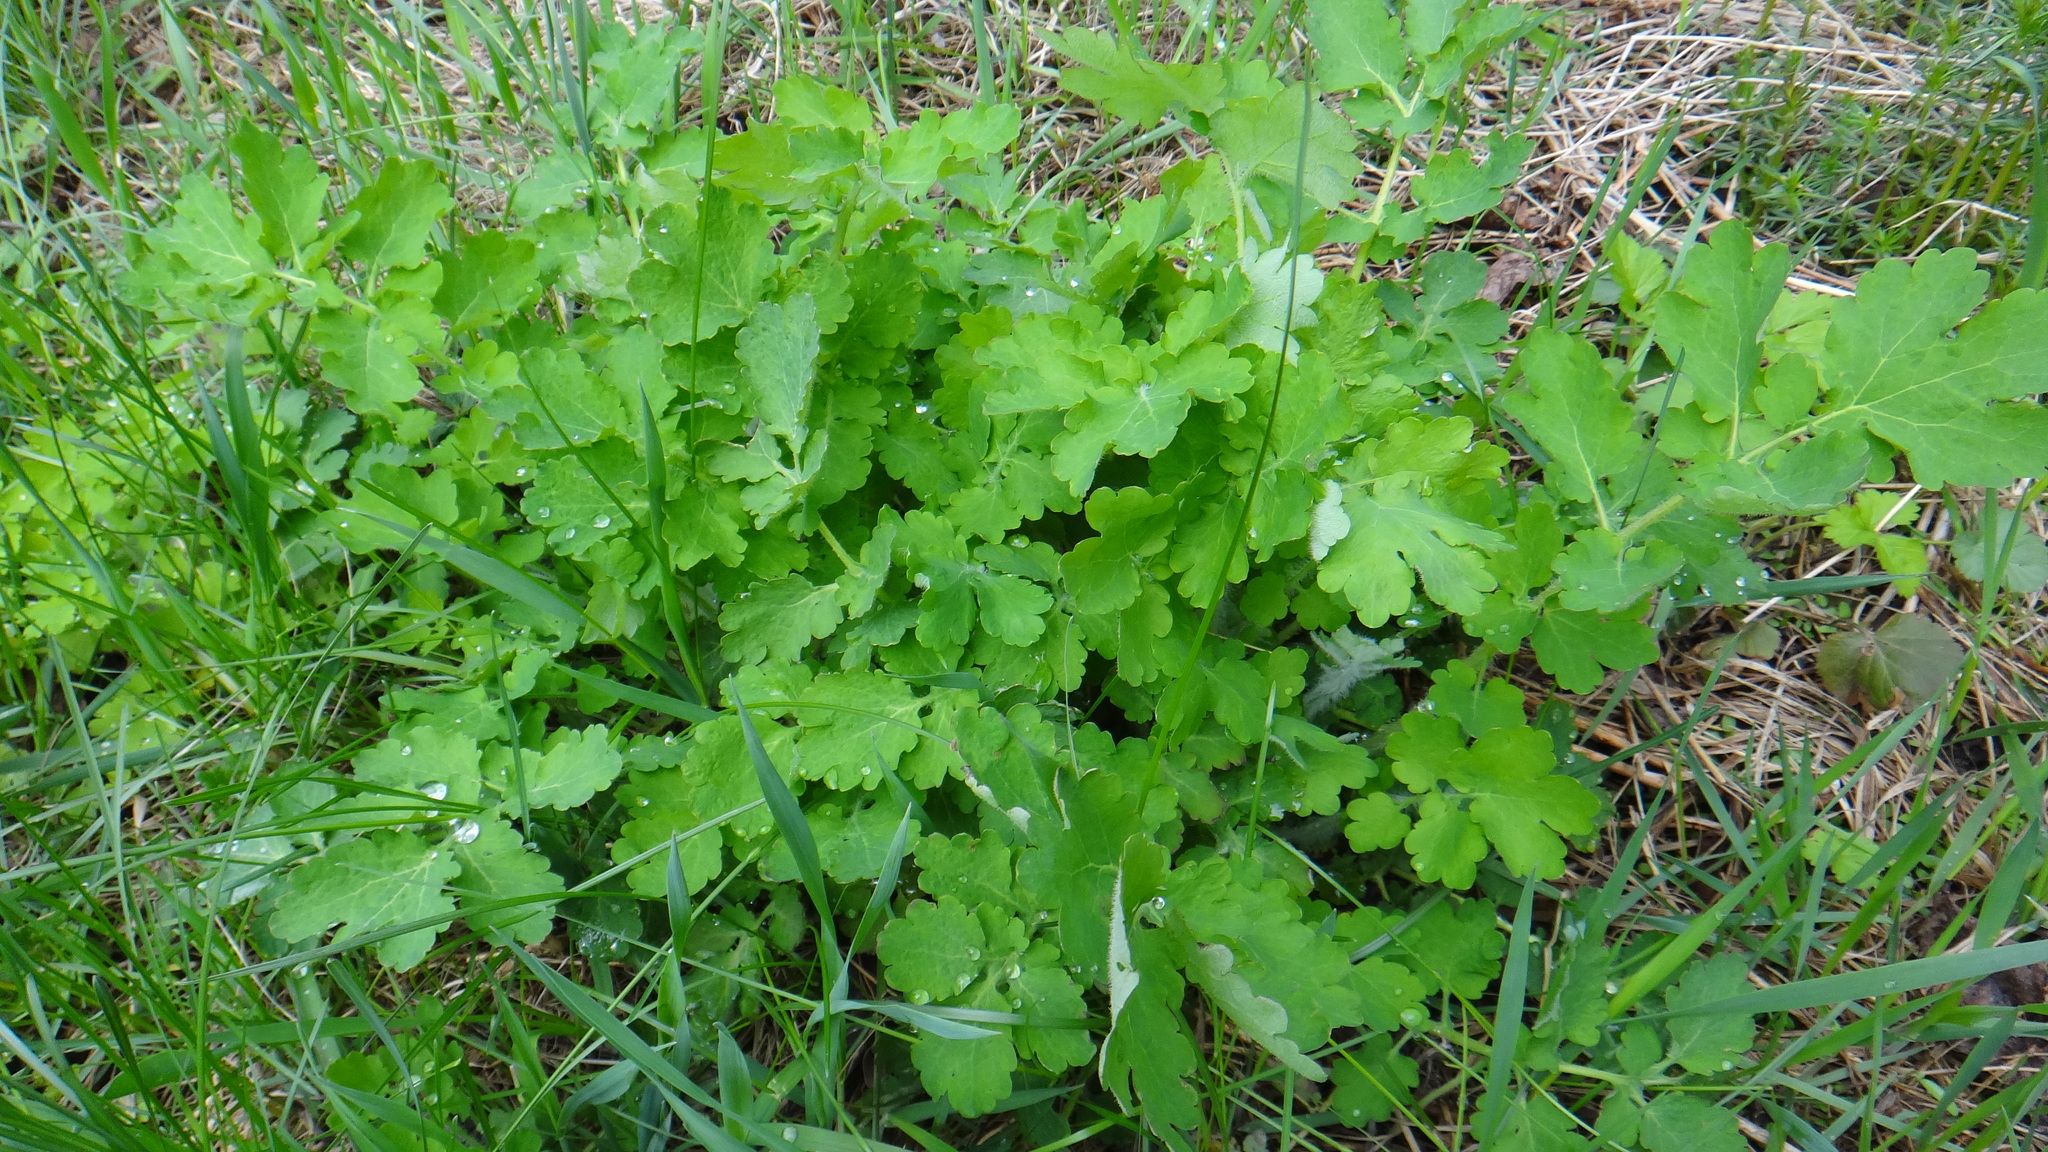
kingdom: Plantae
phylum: Tracheophyta
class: Magnoliopsida
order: Ranunculales
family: Papaveraceae
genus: Chelidonium
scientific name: Chelidonium majus
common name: Greater celandine
